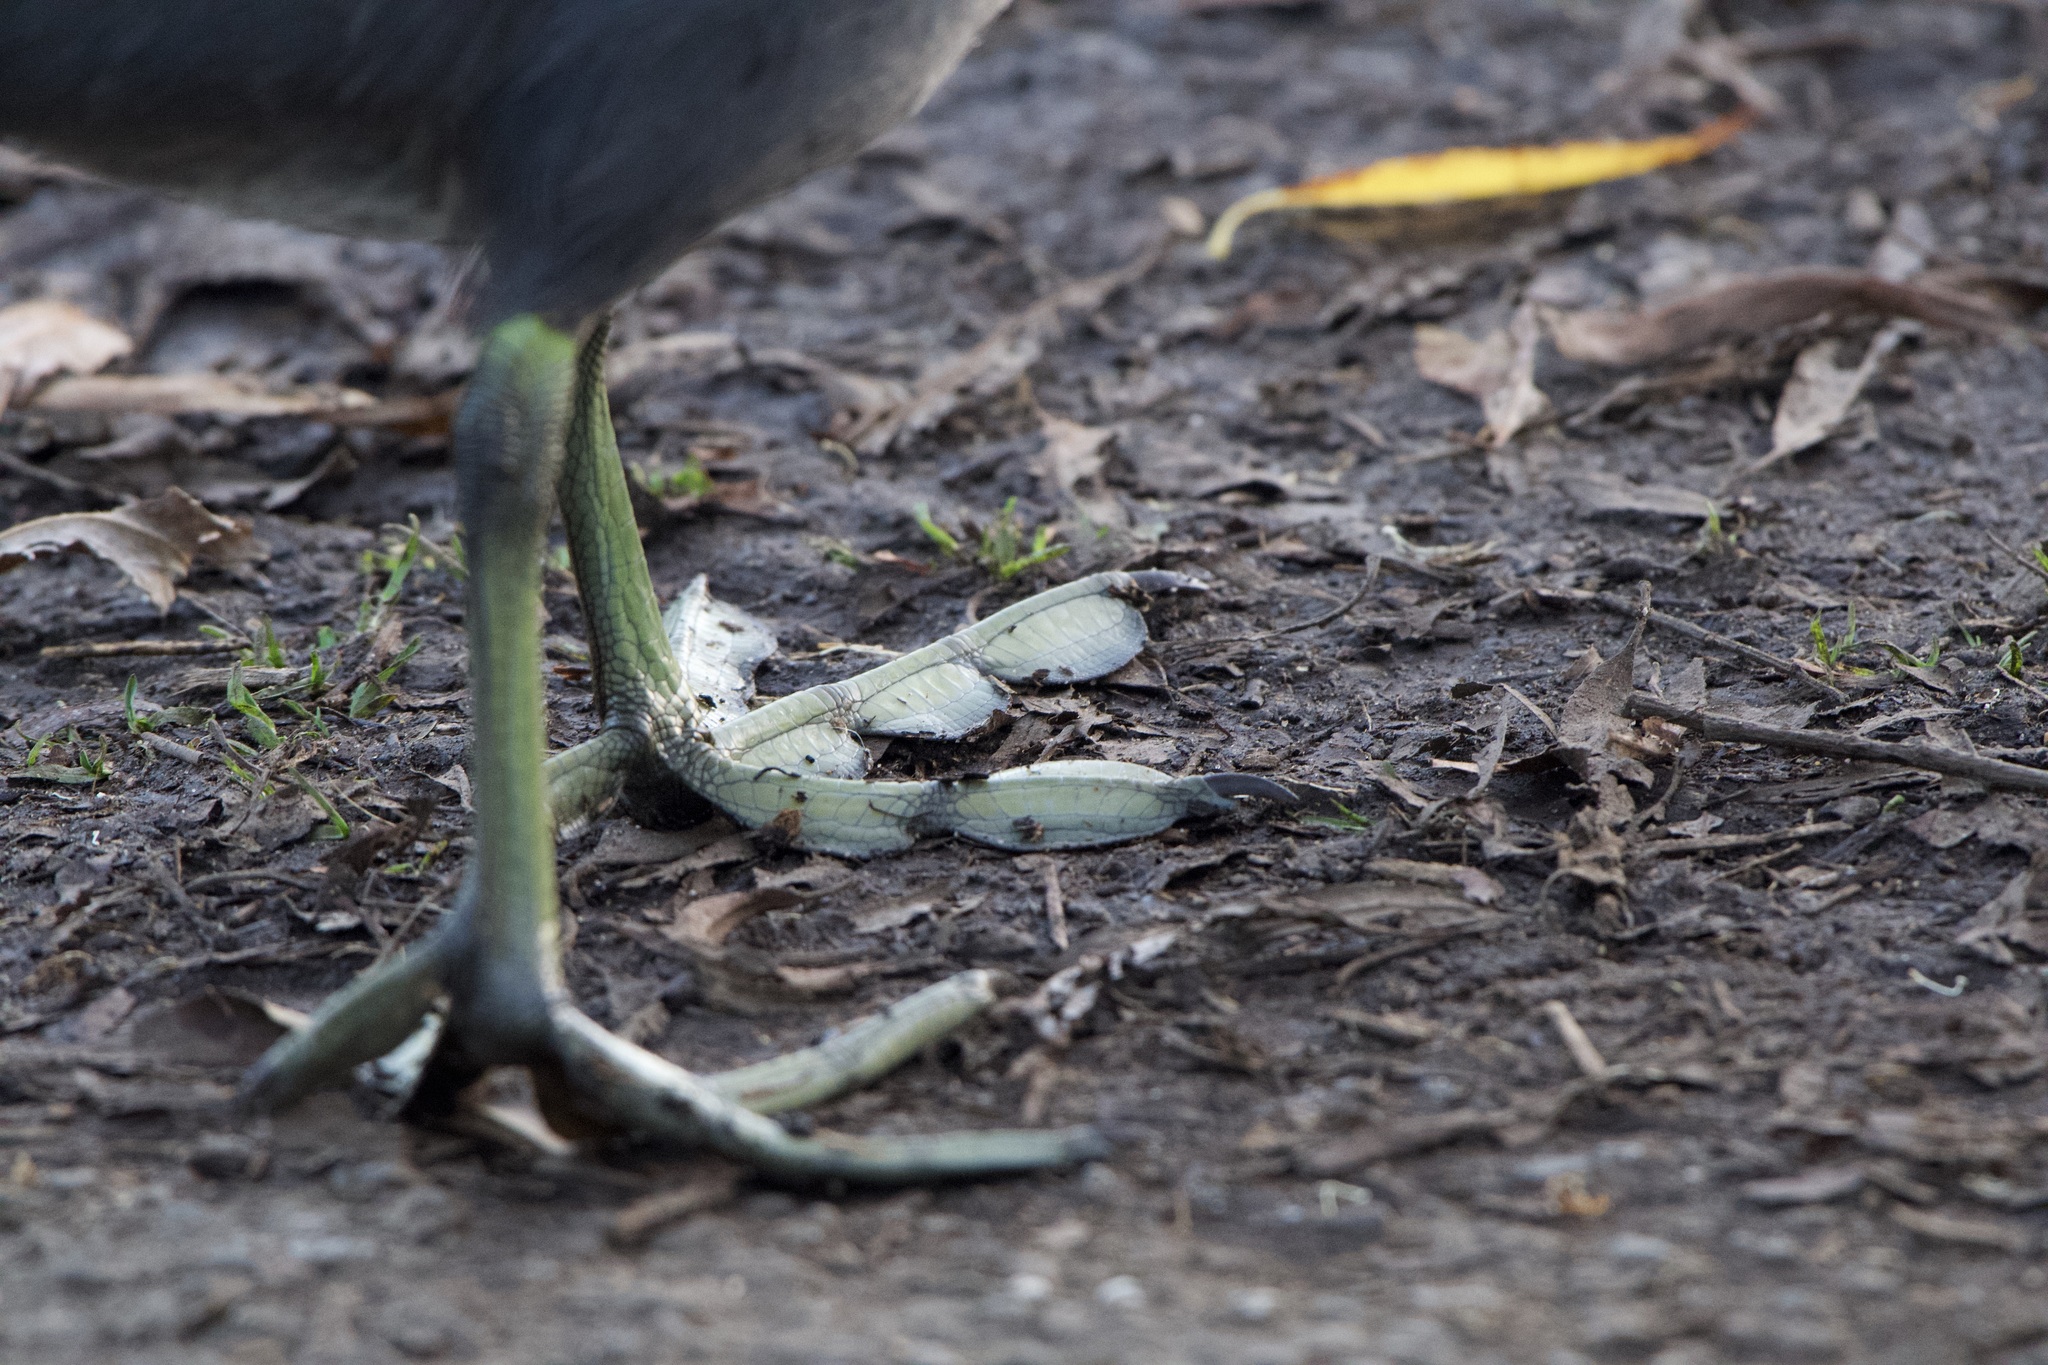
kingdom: Animalia
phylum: Chordata
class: Aves
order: Gruiformes
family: Rallidae
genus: Fulica
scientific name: Fulica americana
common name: American coot
